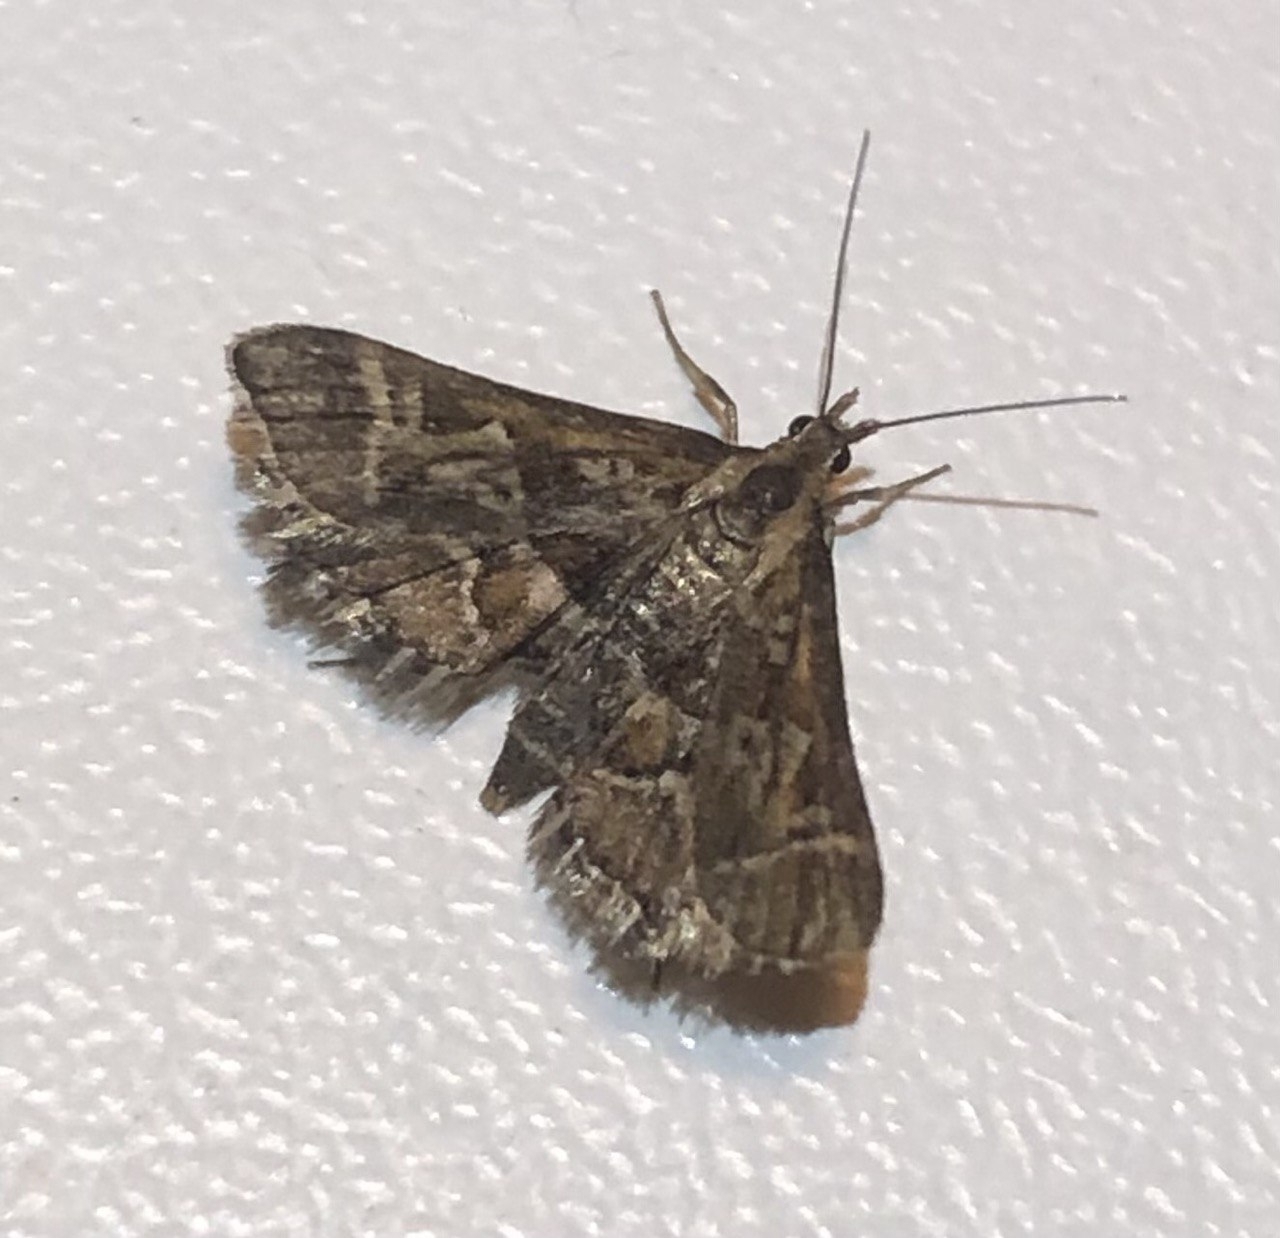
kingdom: Animalia
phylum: Arthropoda
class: Insecta
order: Lepidoptera
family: Crambidae
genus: Diasemia
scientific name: Diasemia reticularis
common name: Lettered china-mark
